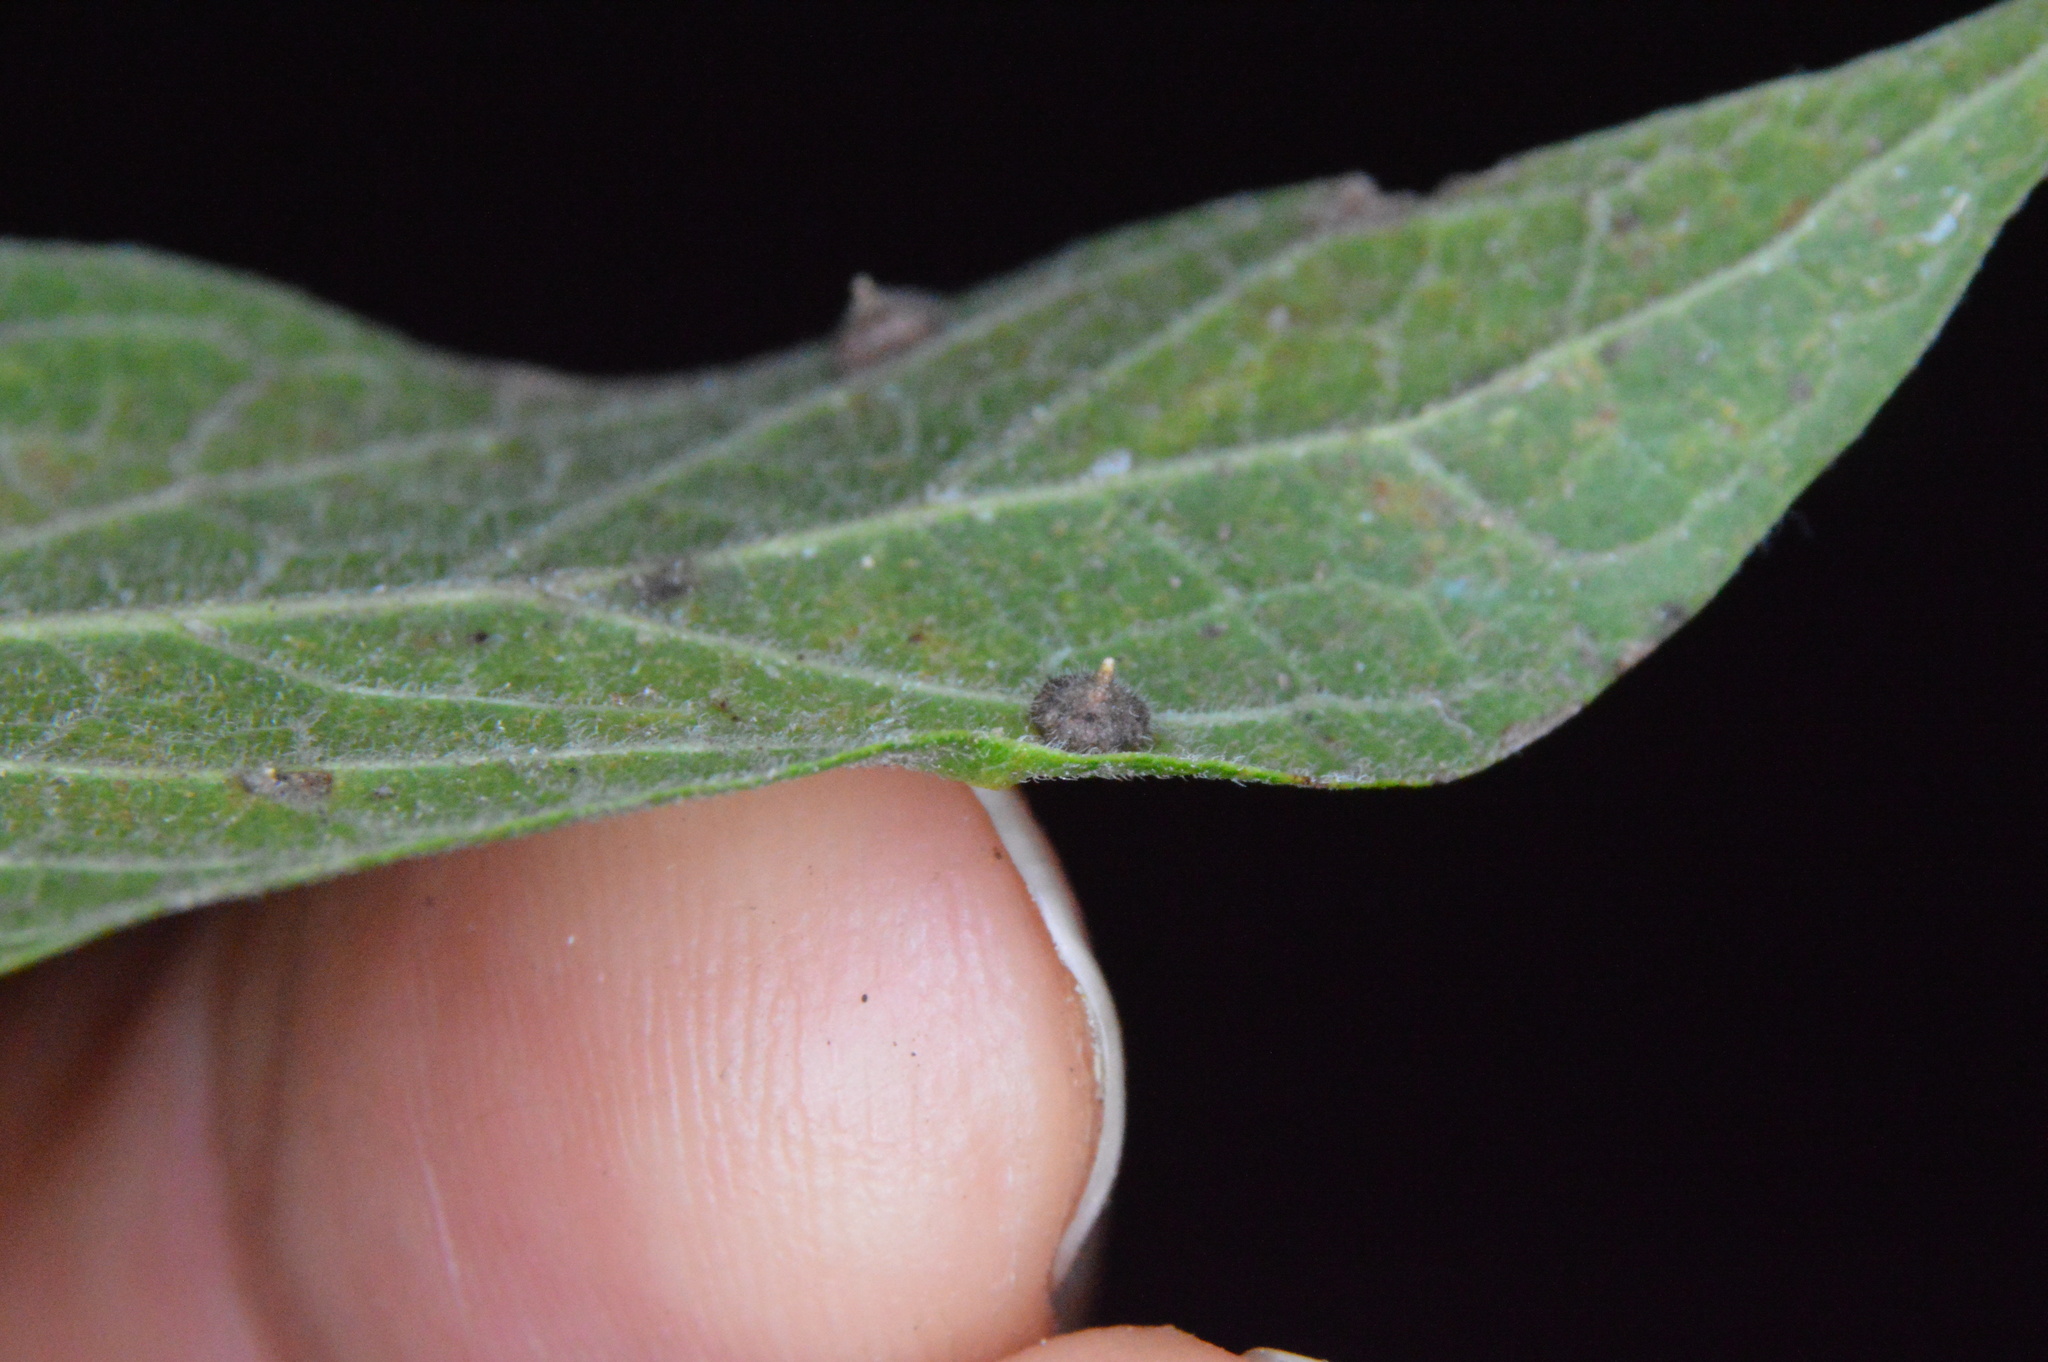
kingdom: Animalia
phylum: Arthropoda
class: Insecta
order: Diptera
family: Cecidomyiidae
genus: Celticecis
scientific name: Celticecis capsularis
